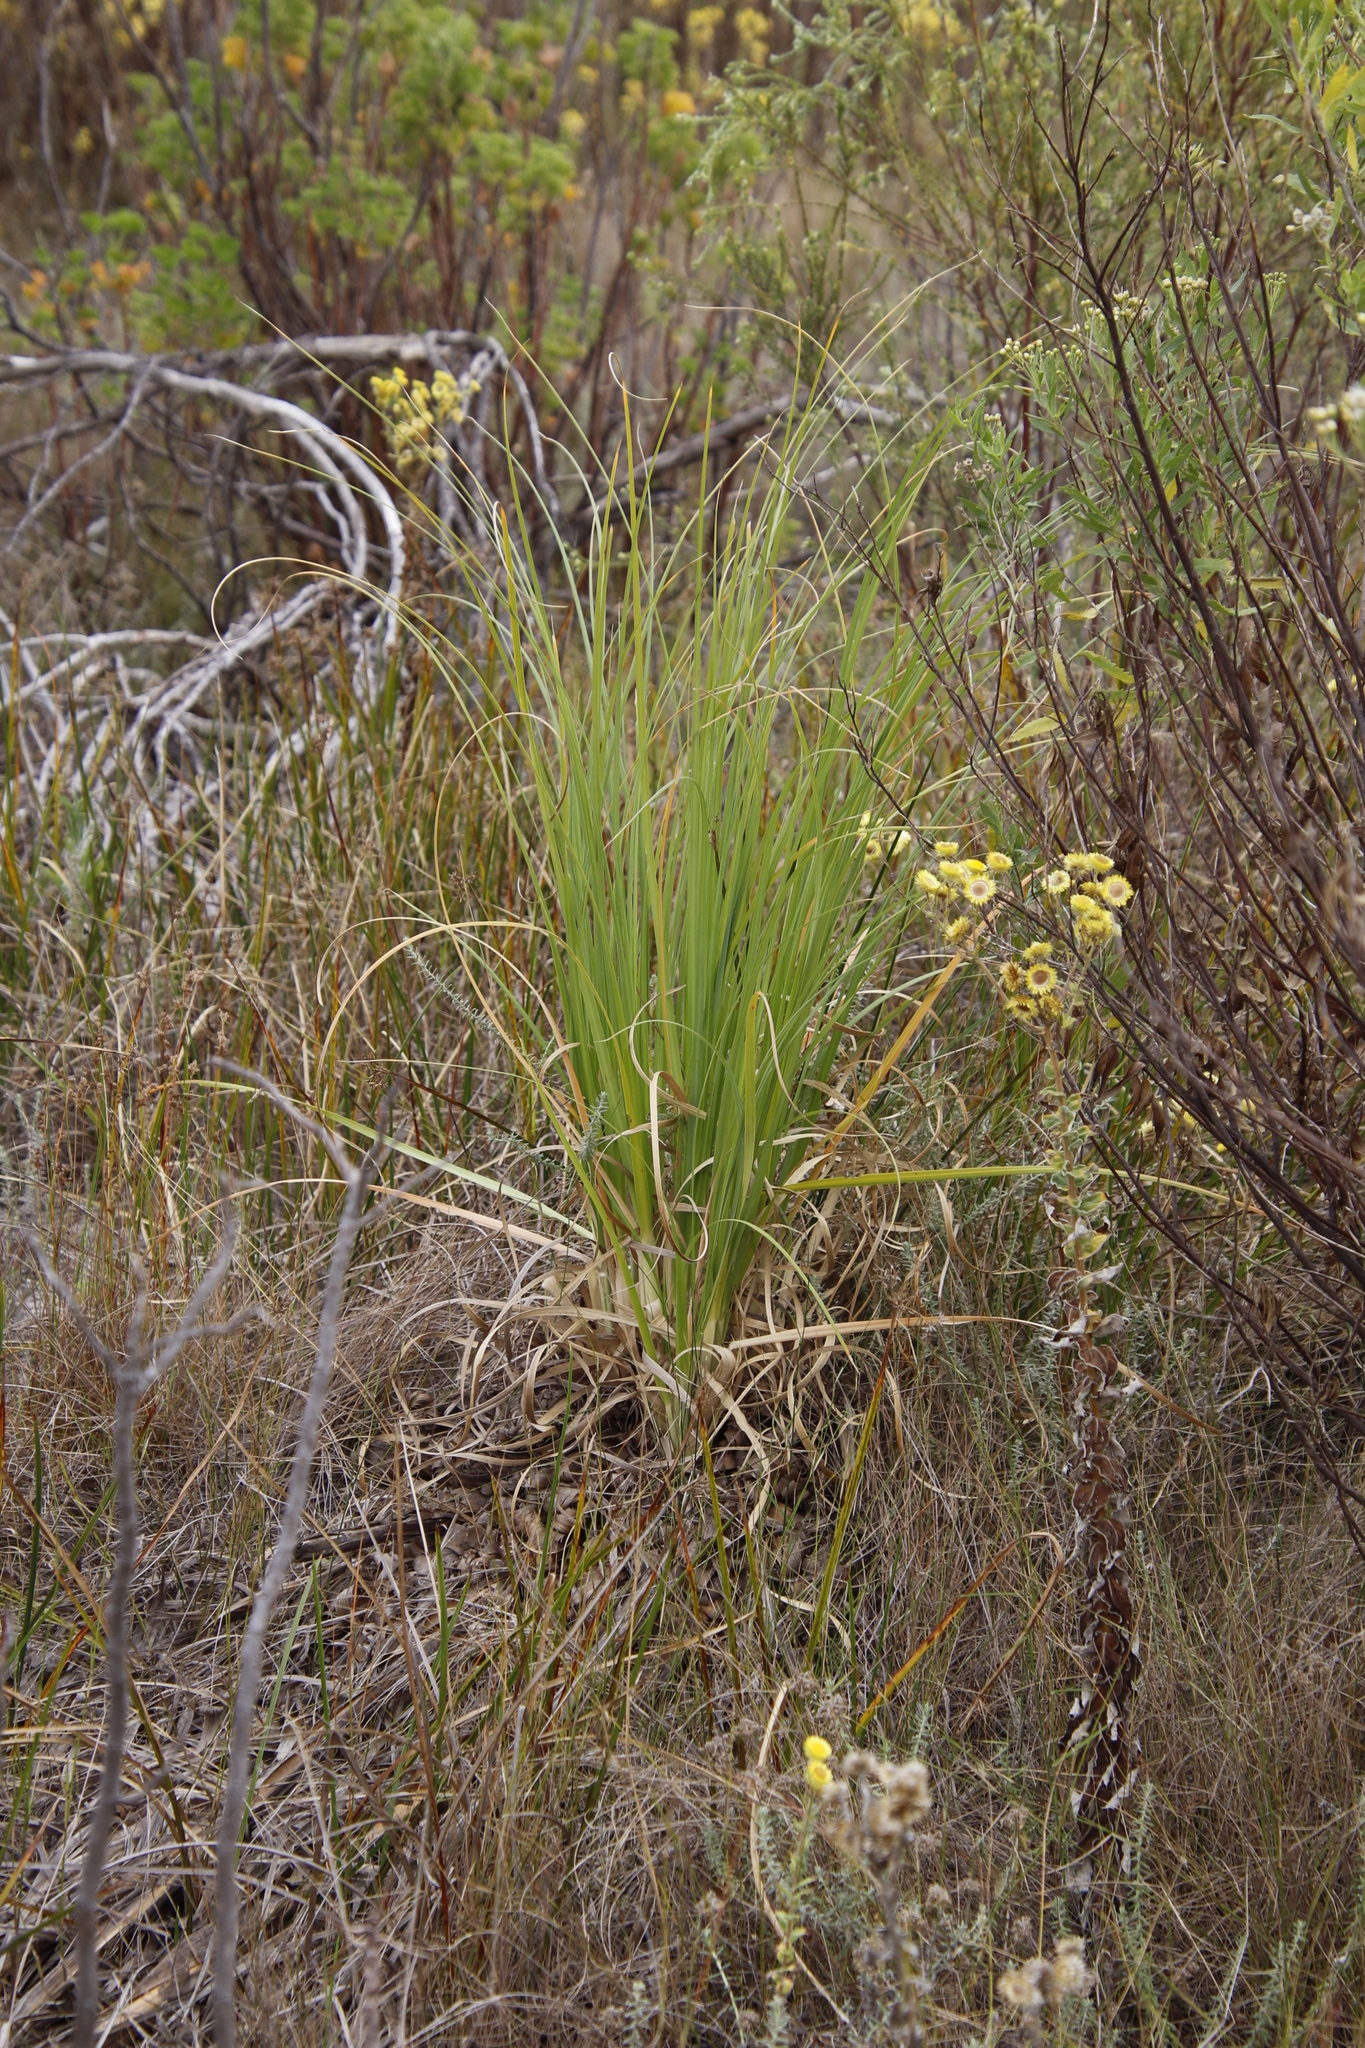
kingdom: Plantae
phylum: Tracheophyta
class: Liliopsida
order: Poales
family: Poaceae
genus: Cortaderia
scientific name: Cortaderia selloana
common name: Uruguayan pampas grass
